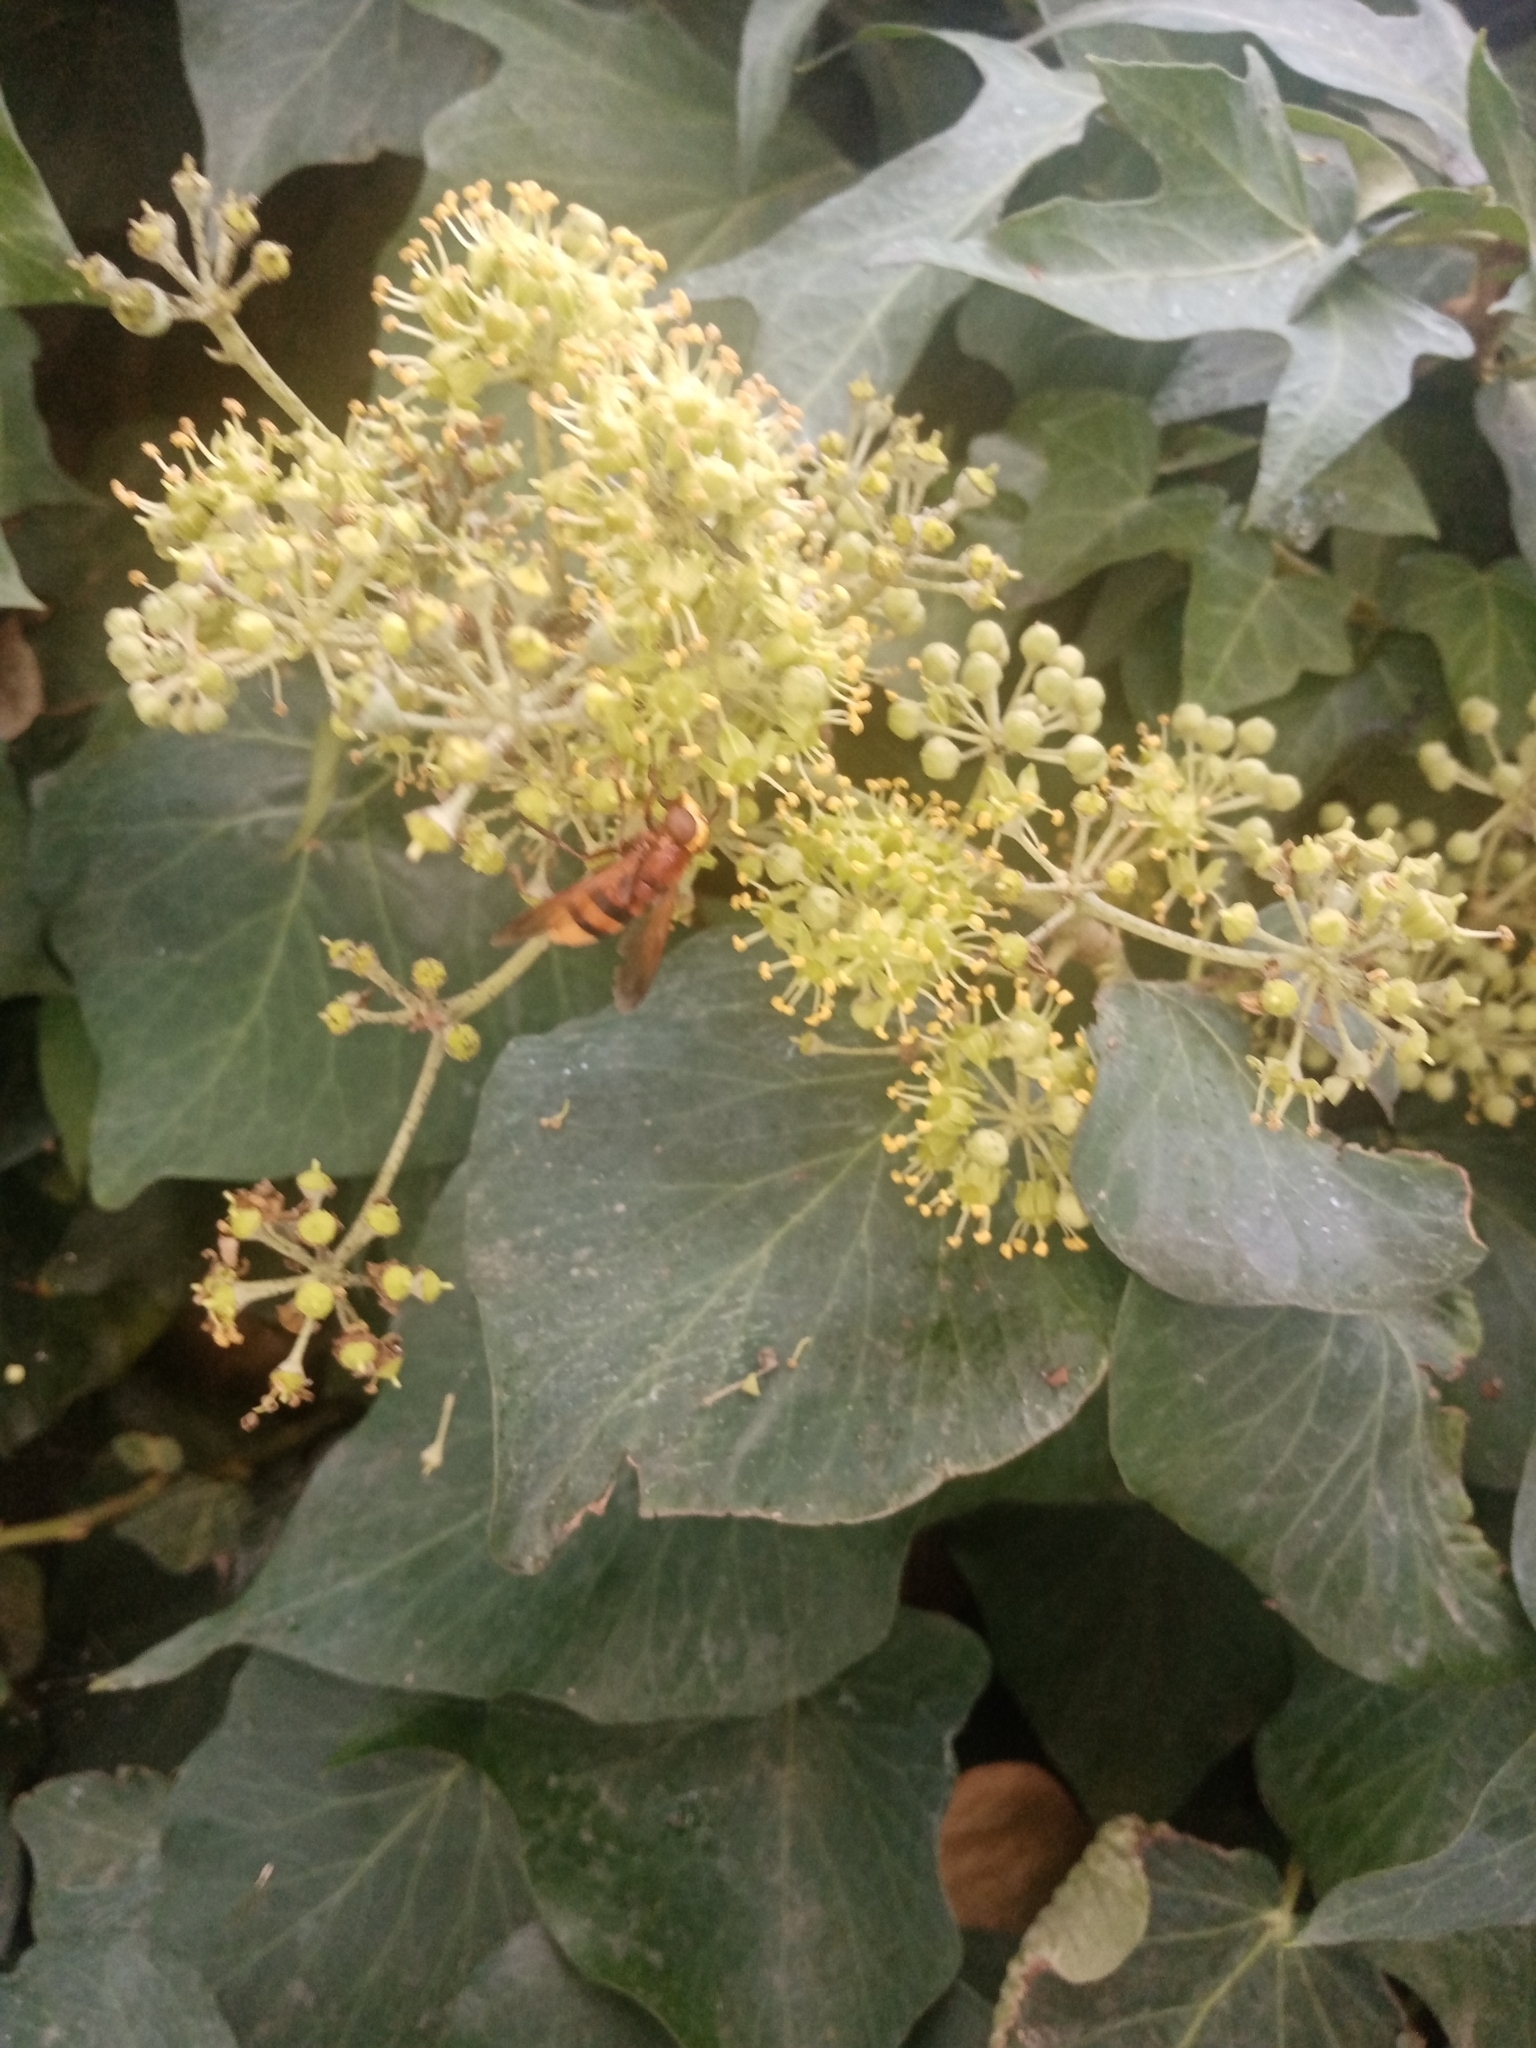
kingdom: Animalia
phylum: Arthropoda
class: Insecta
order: Diptera
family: Syrphidae
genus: Volucella
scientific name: Volucella zonaria
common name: Hornet hoverfly
